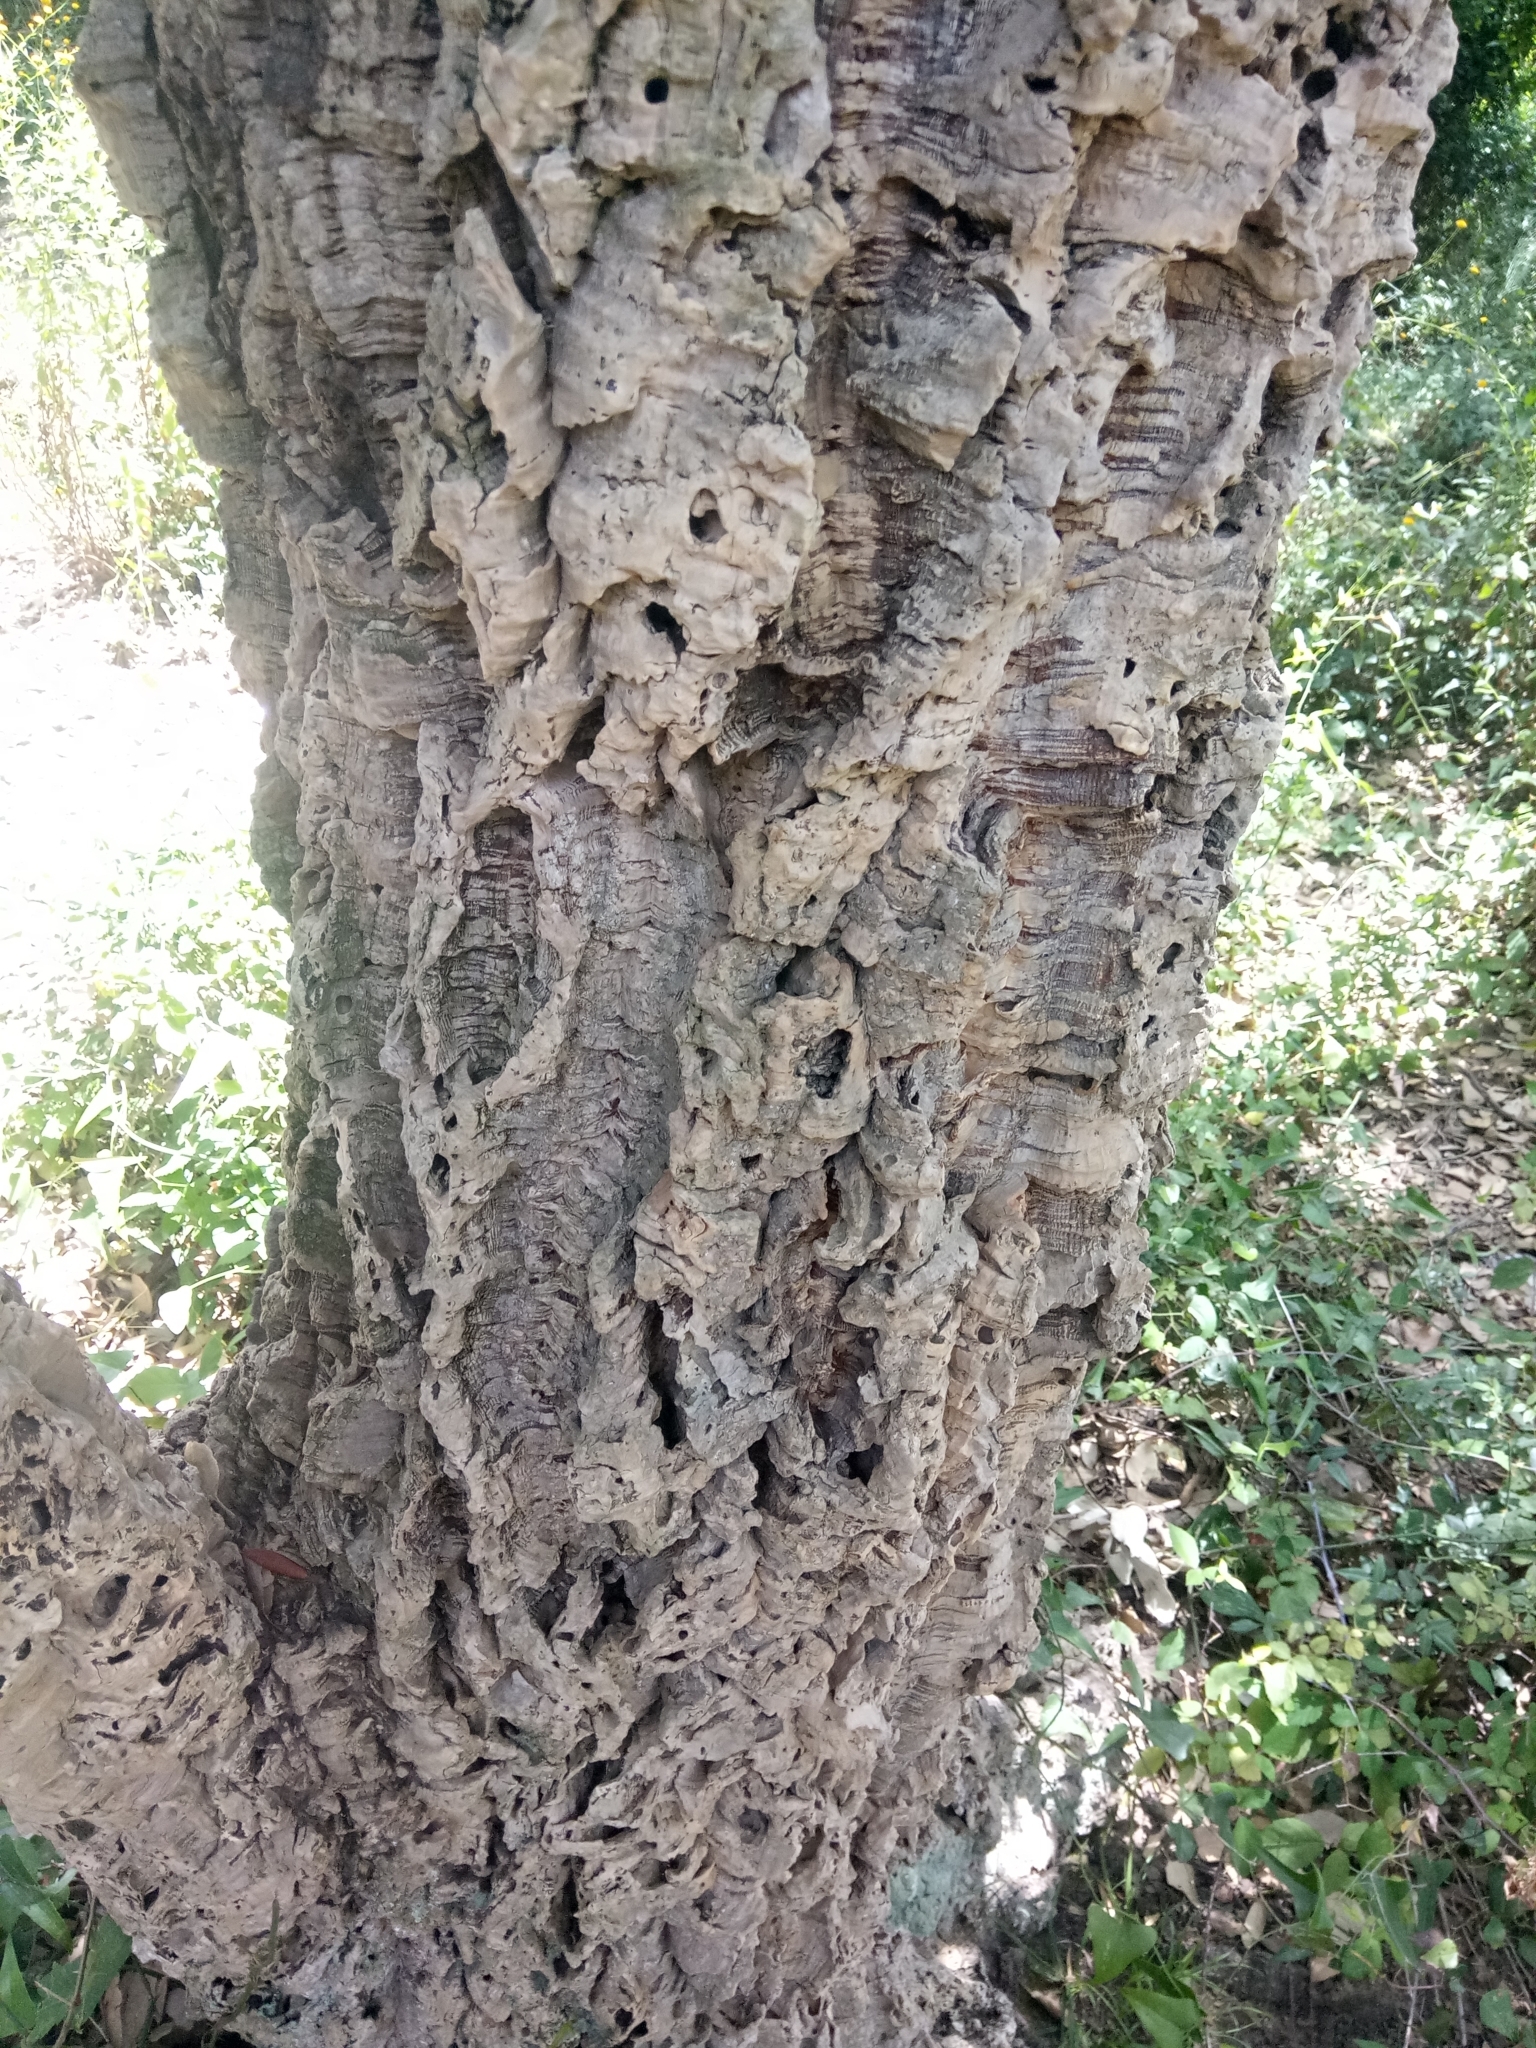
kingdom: Plantae
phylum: Tracheophyta
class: Magnoliopsida
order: Fagales
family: Fagaceae
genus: Quercus
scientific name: Quercus suber
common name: Cork oak
